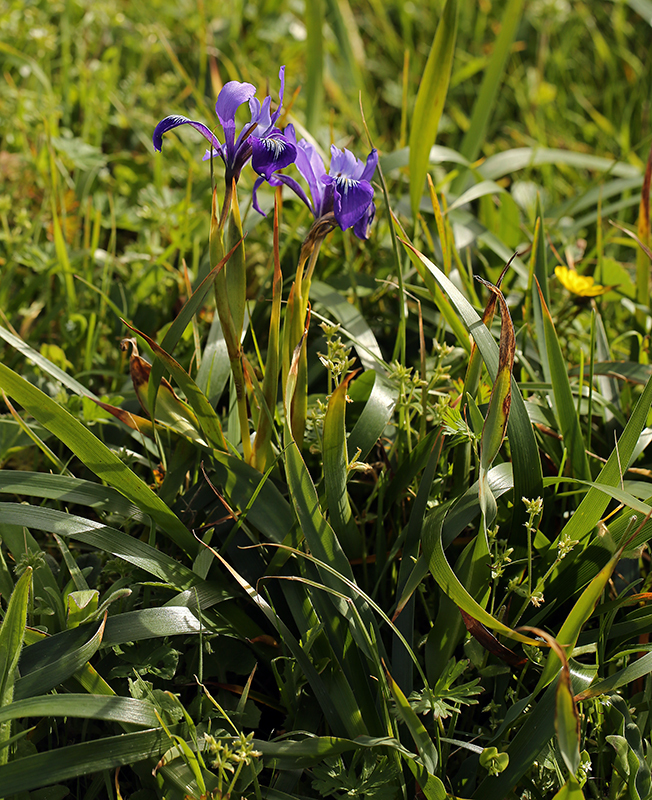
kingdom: Plantae
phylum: Tracheophyta
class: Liliopsida
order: Asparagales
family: Iridaceae
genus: Iris
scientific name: Iris douglasiana
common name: Marin iris
